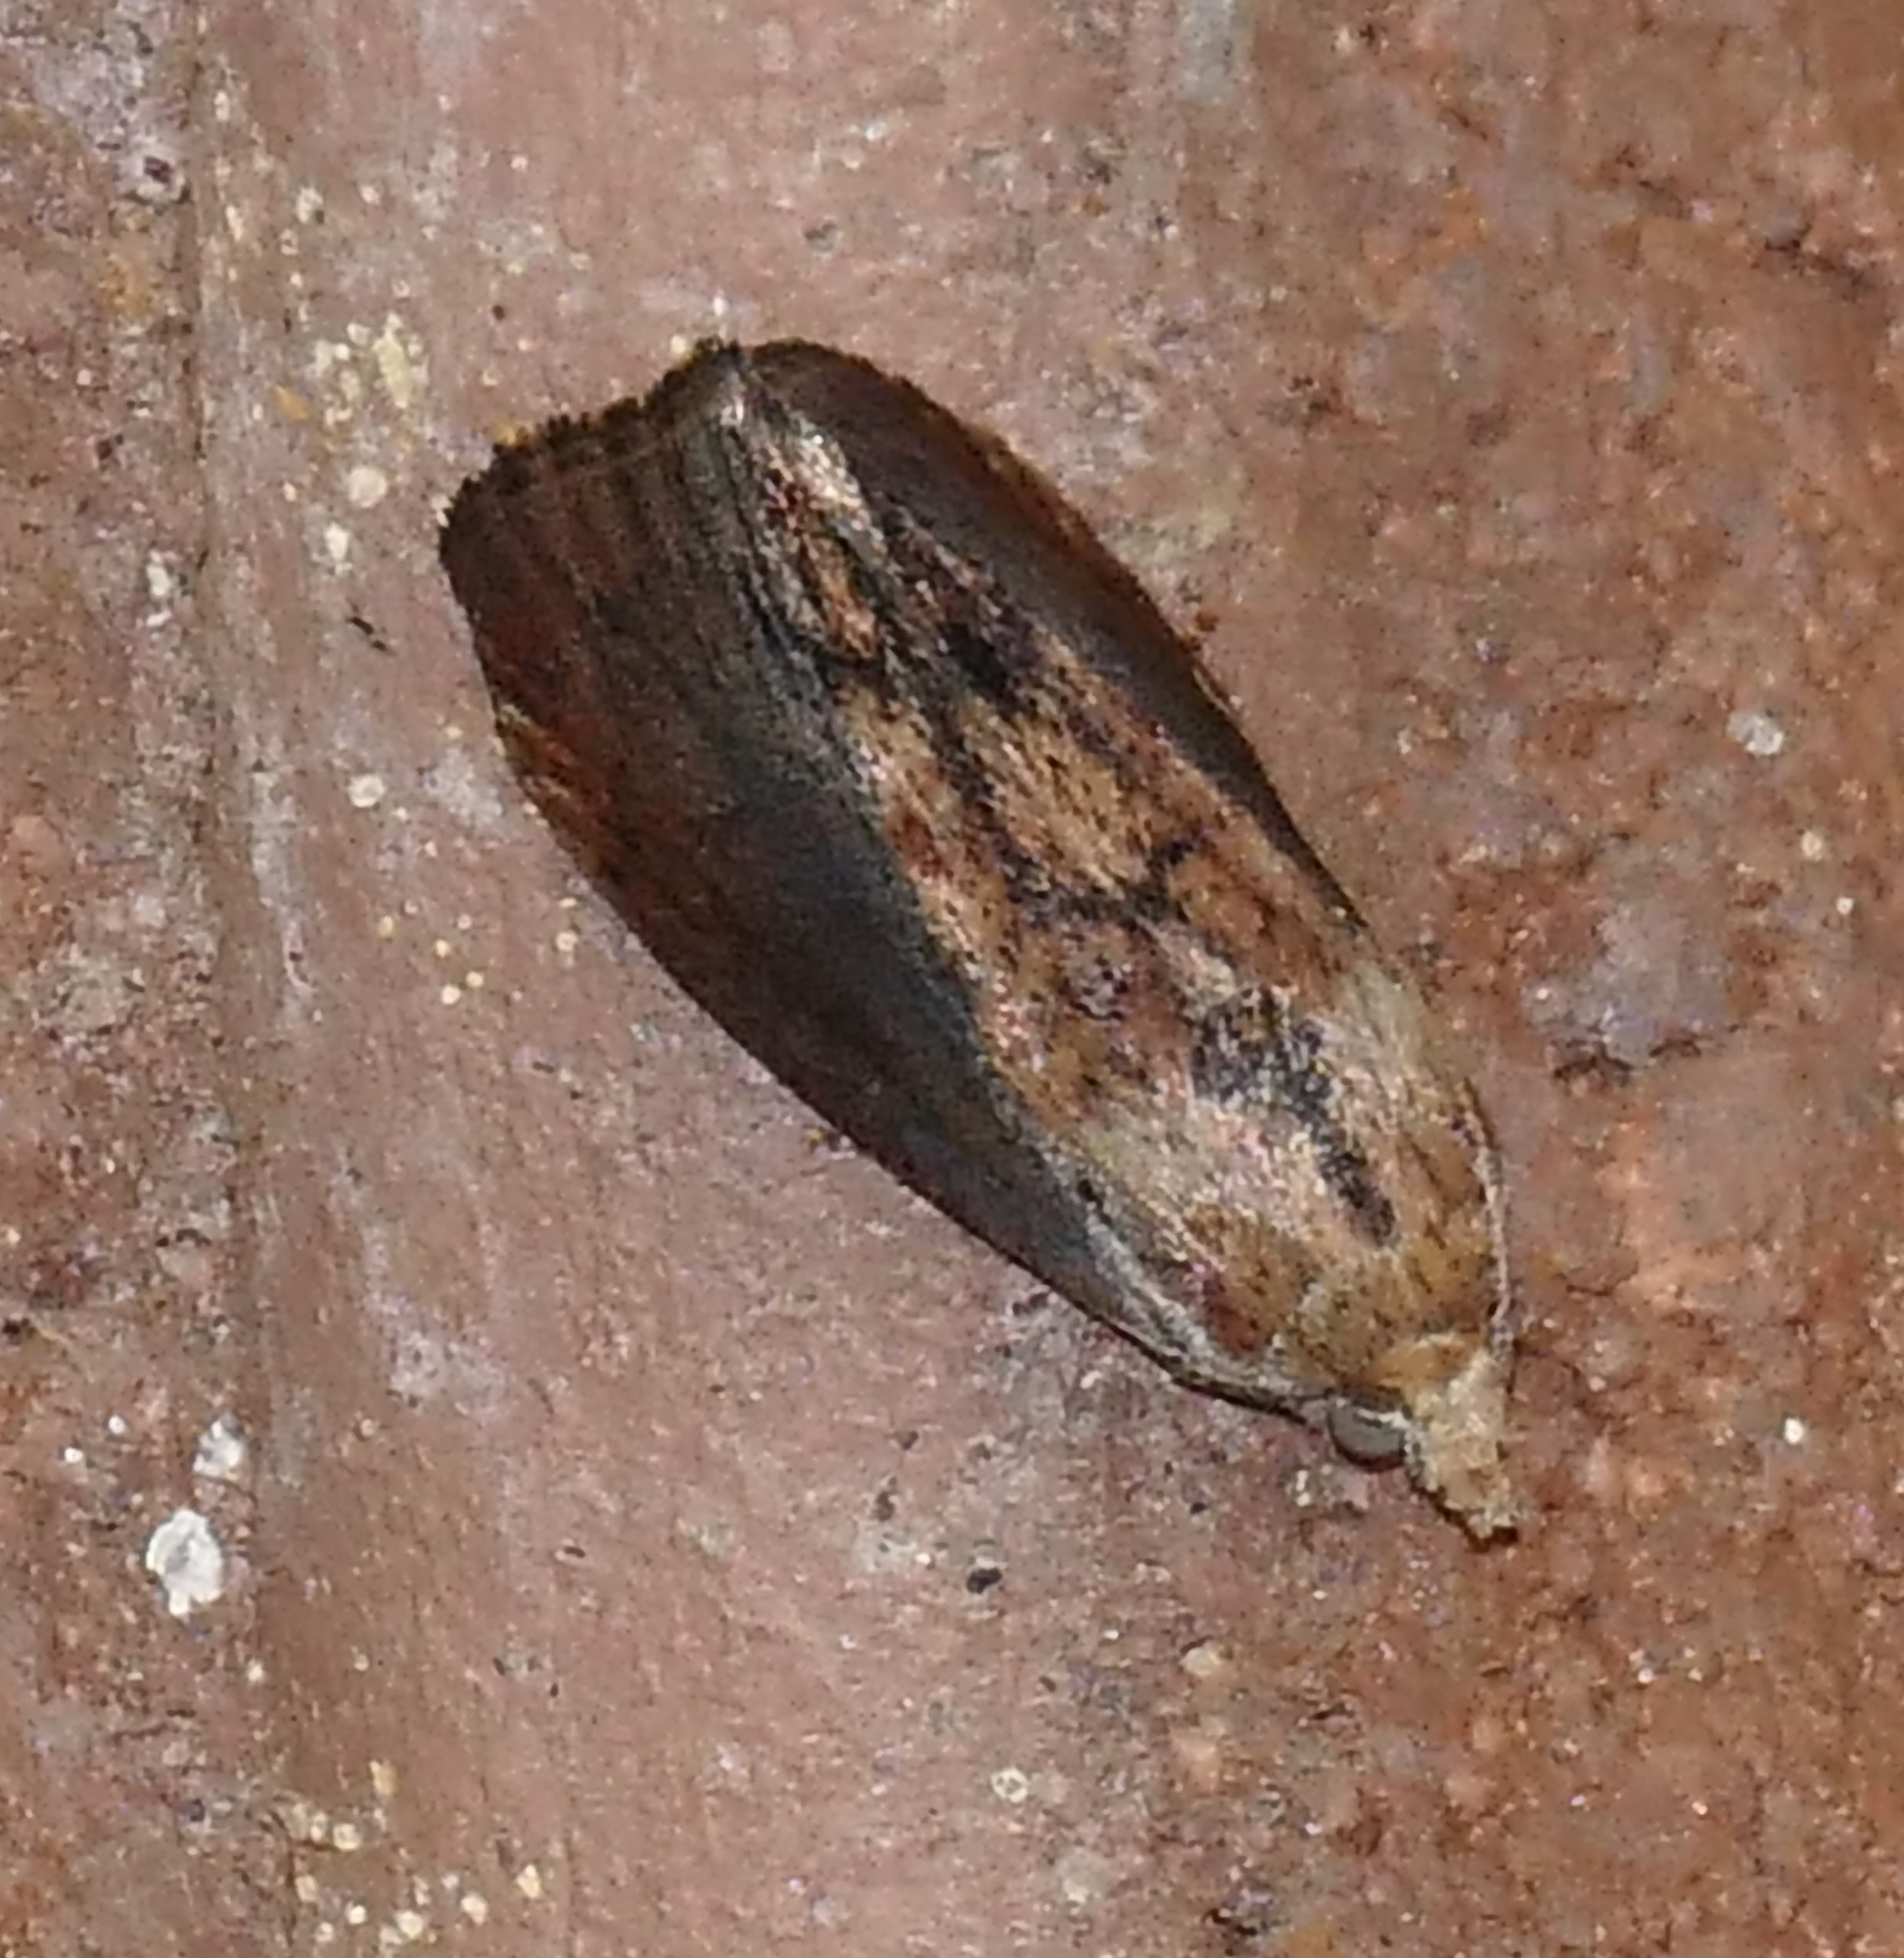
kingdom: Animalia
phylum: Arthropoda
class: Insecta
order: Lepidoptera
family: Pyralidae
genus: Galleria
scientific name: Galleria mellonella
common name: Greater wax moth
